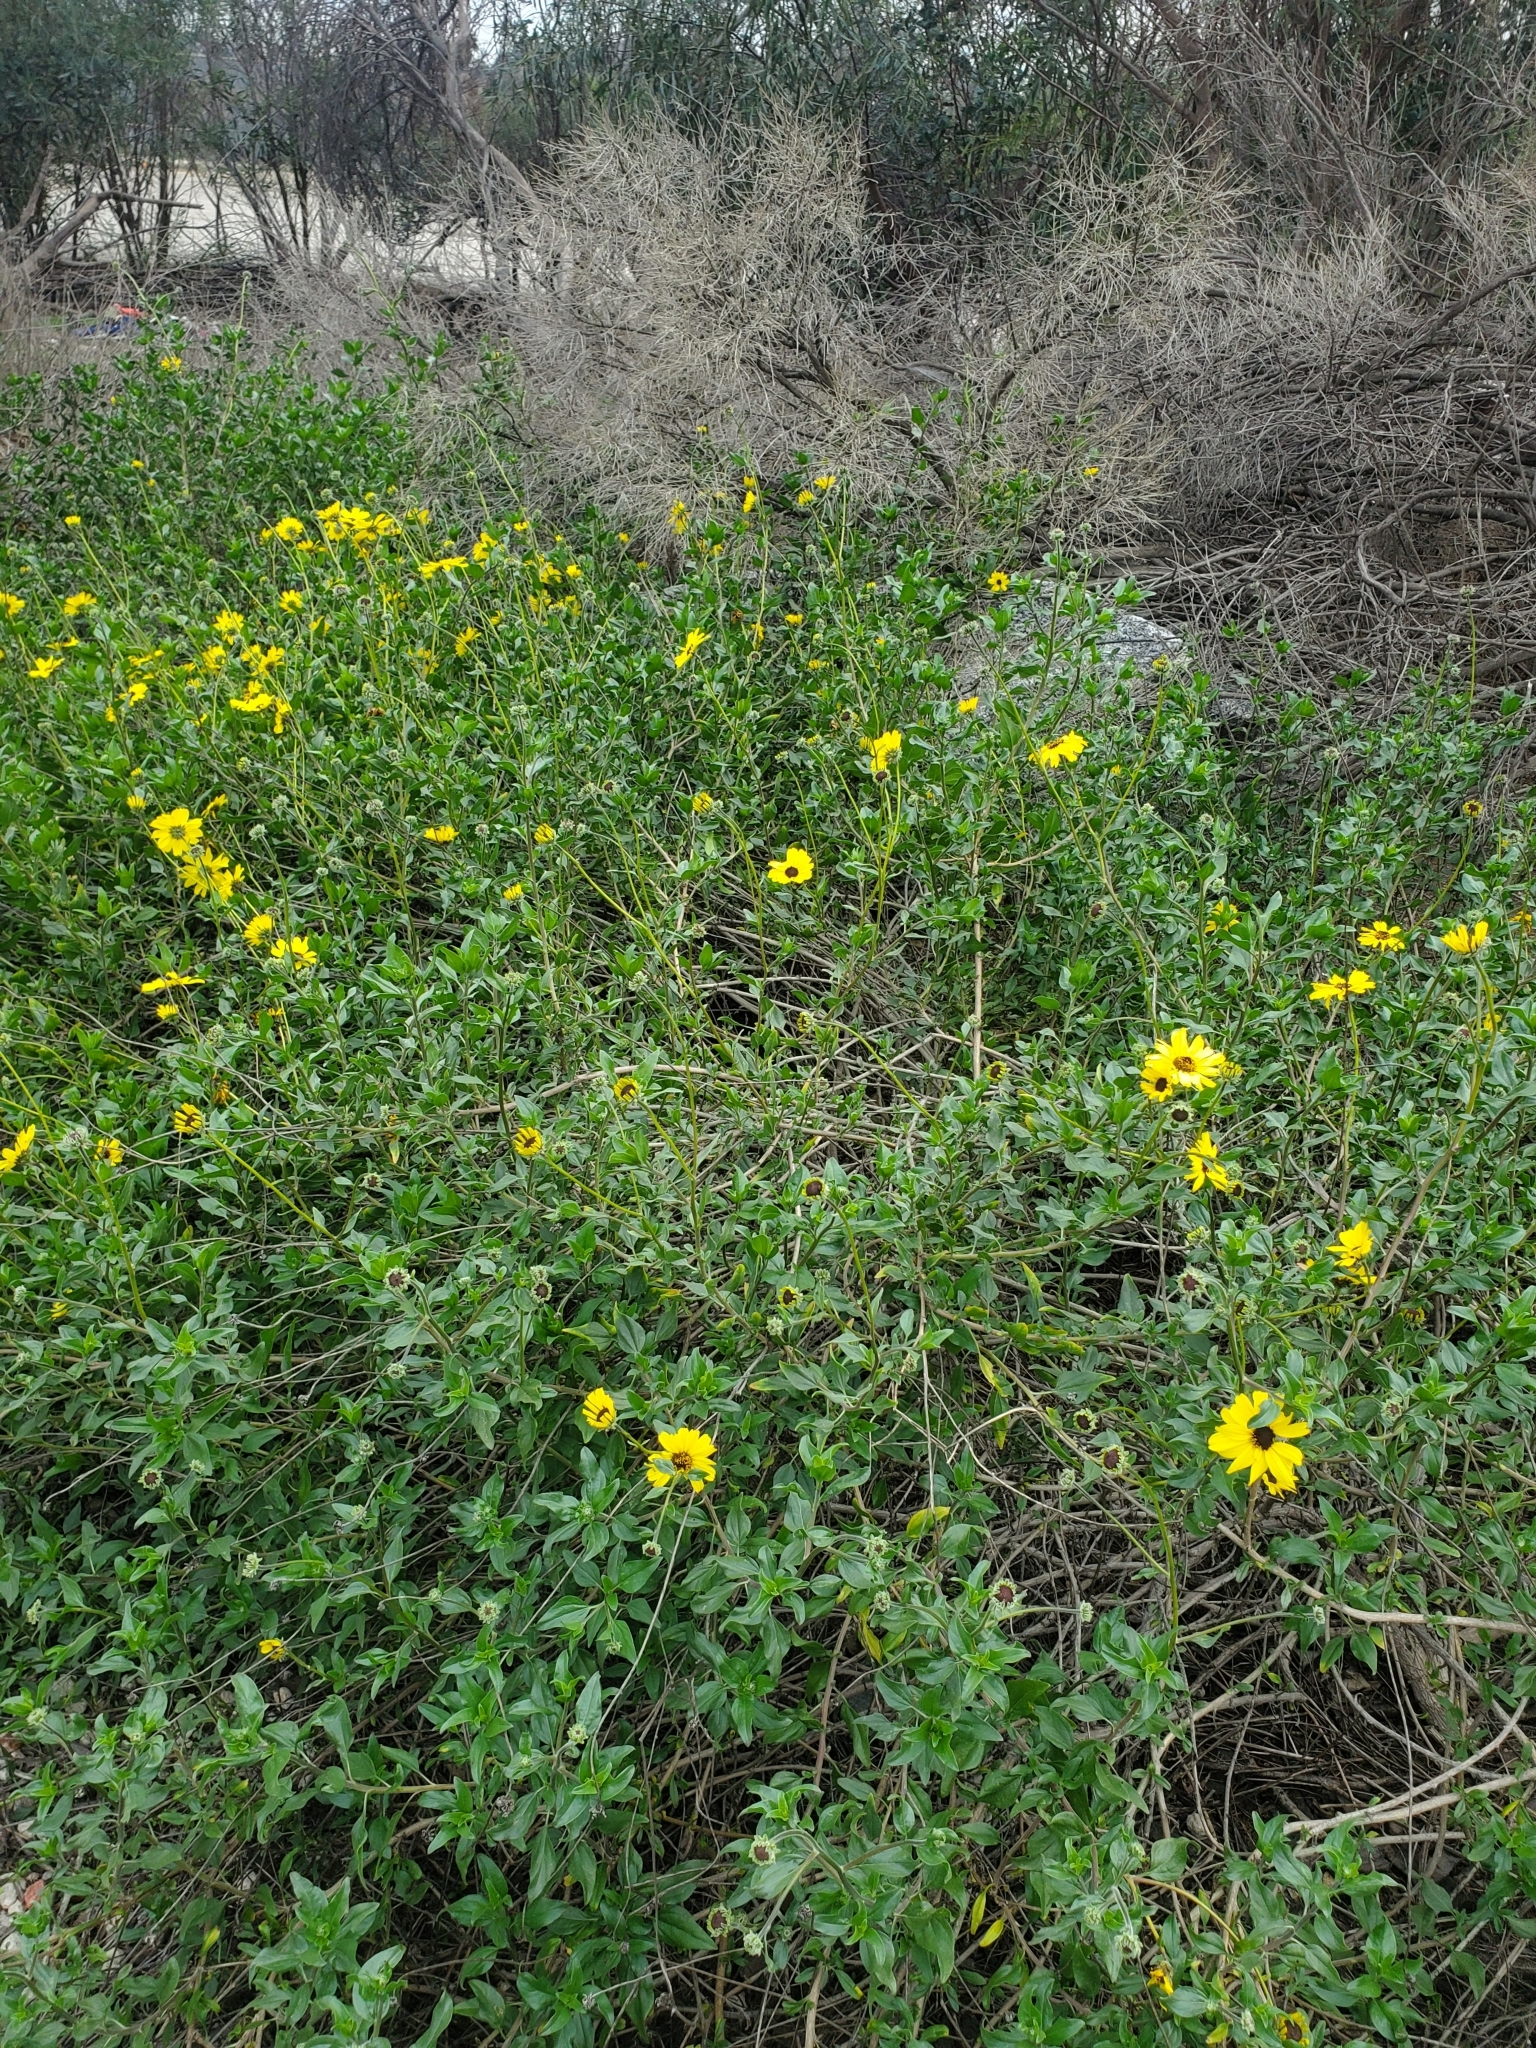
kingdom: Plantae
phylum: Tracheophyta
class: Magnoliopsida
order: Asterales
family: Asteraceae
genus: Encelia
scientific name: Encelia californica
